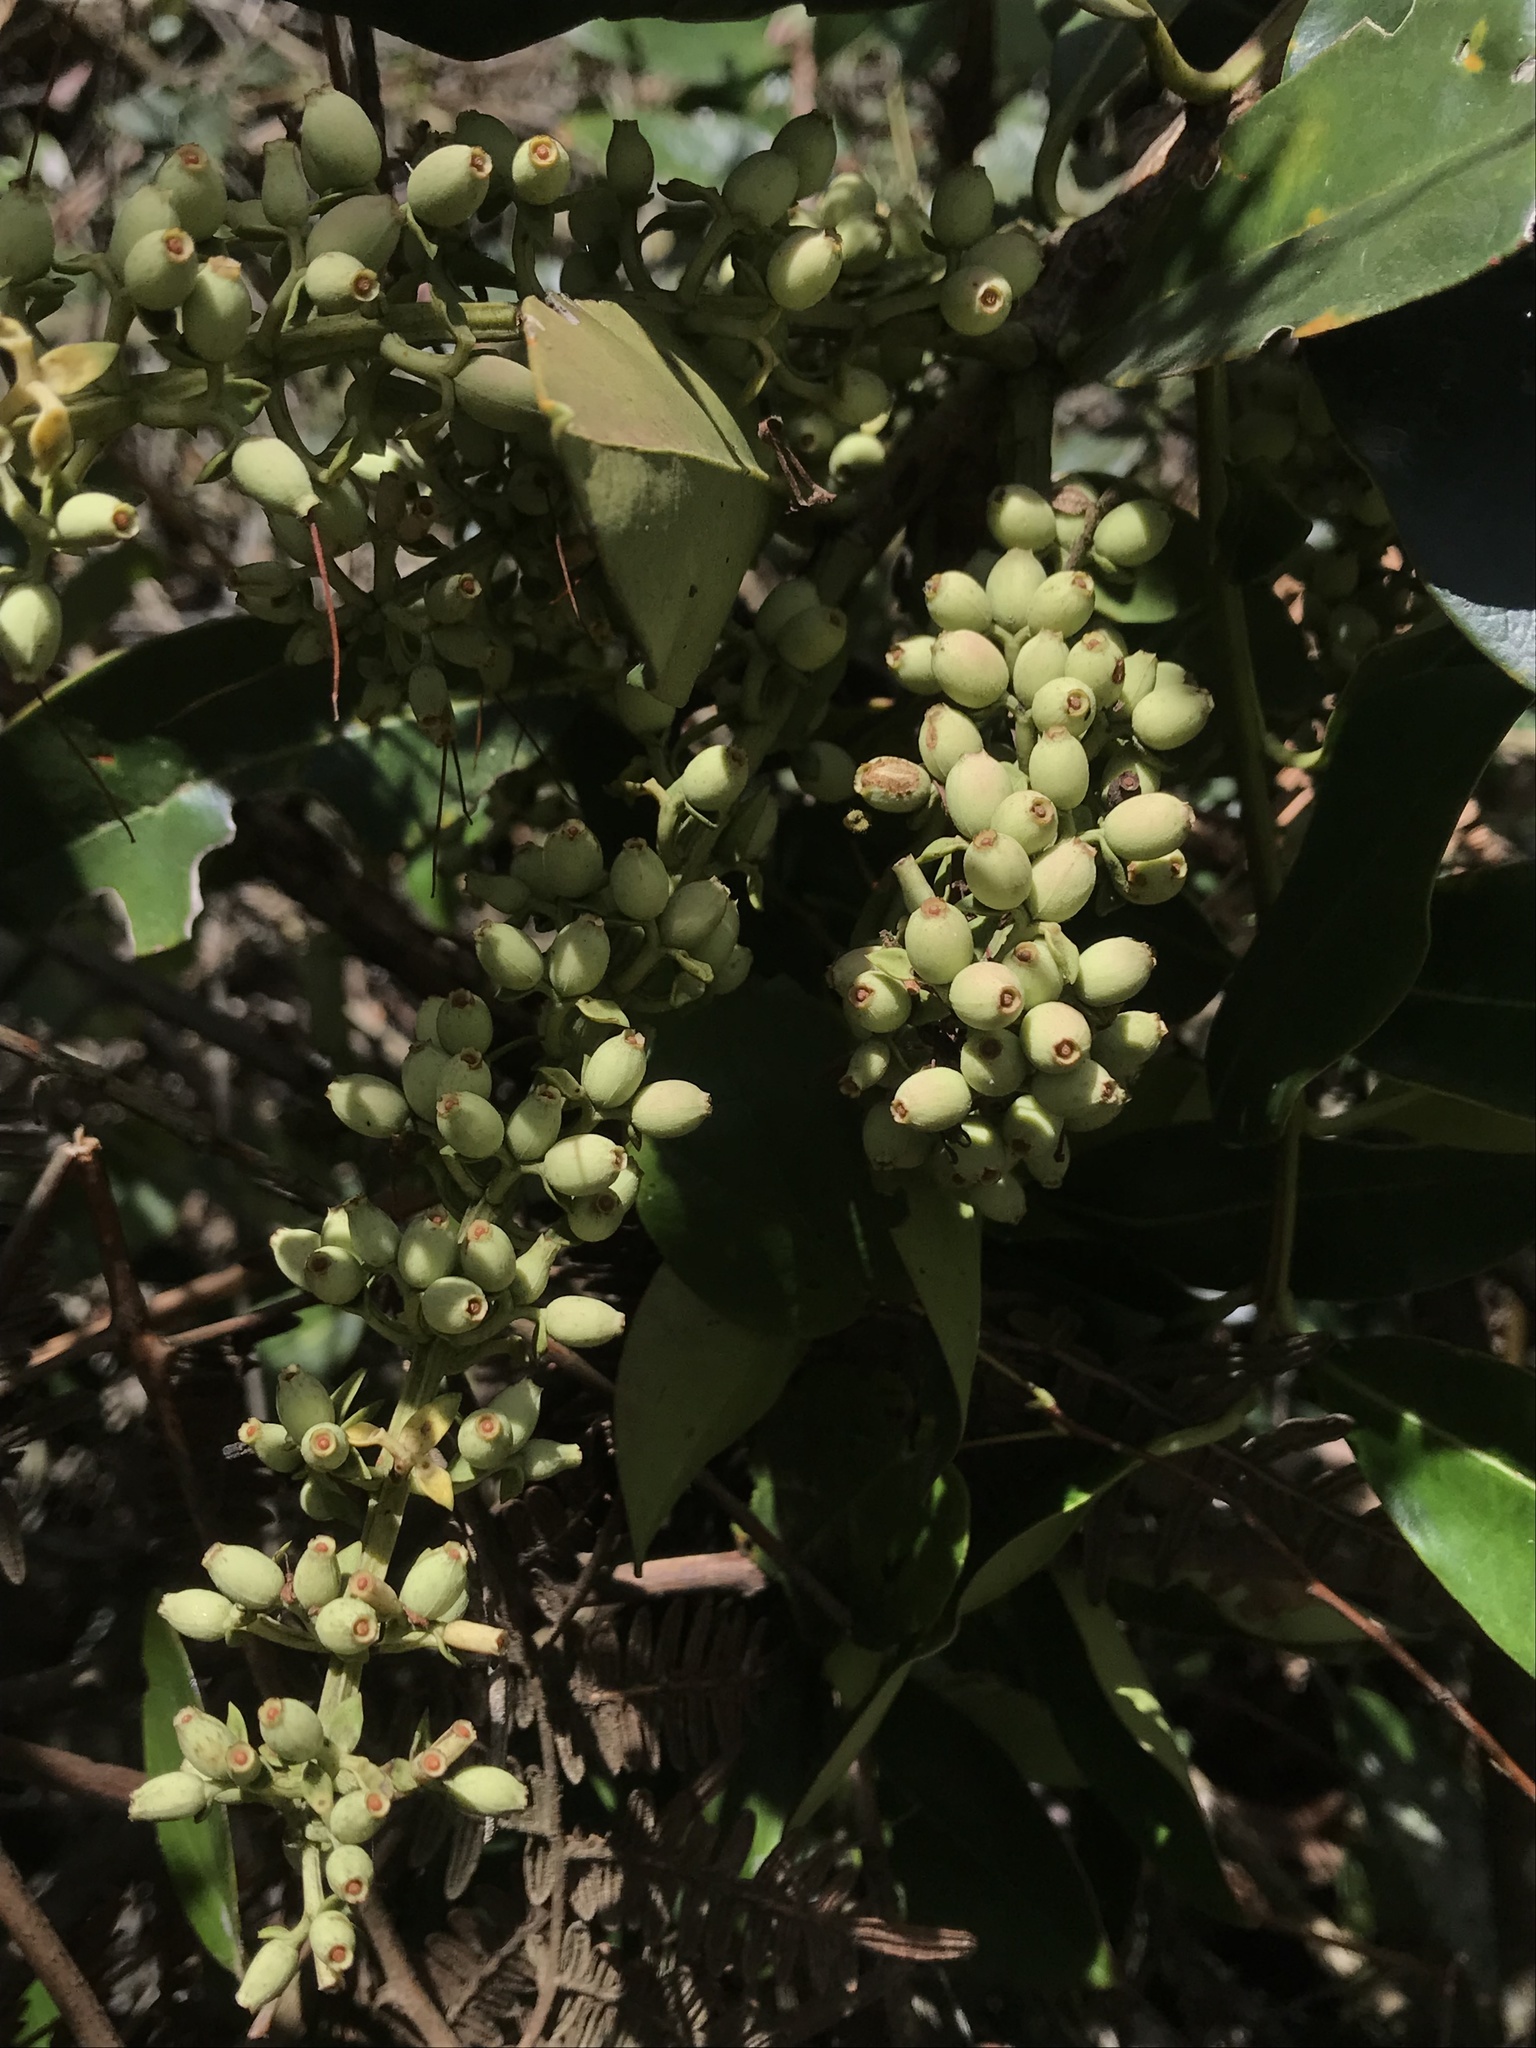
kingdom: Plantae
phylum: Tracheophyta
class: Magnoliopsida
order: Santalales
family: Loranthaceae
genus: Gaiadendron
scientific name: Gaiadendron punctatum
